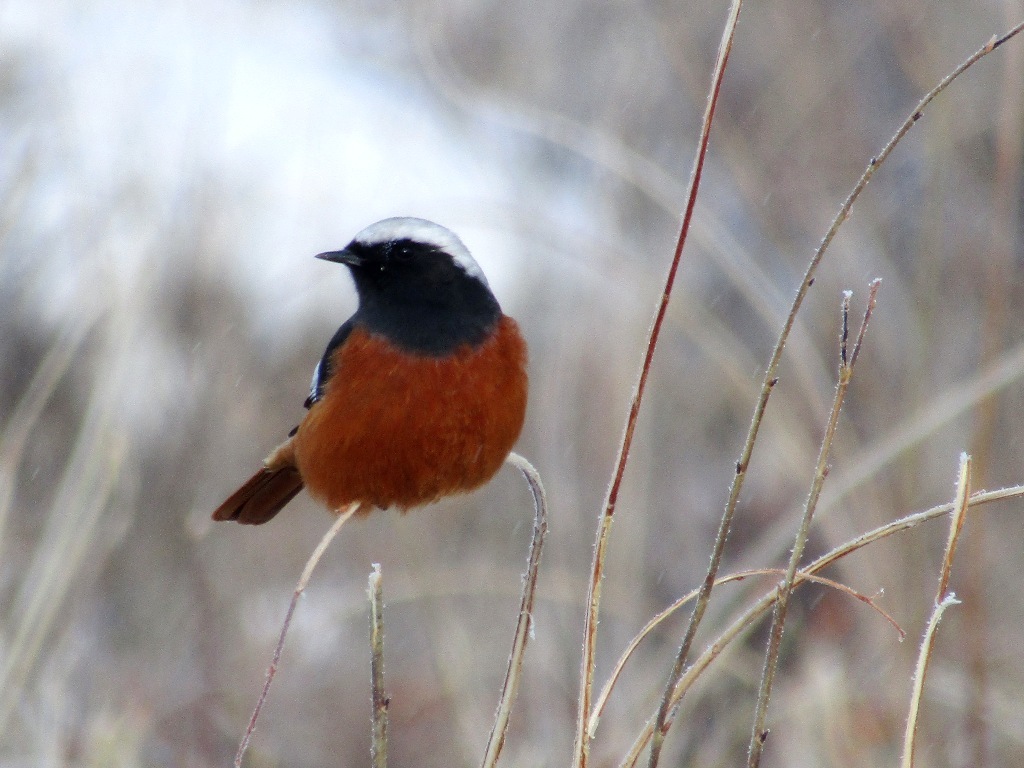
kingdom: Animalia
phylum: Chordata
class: Aves
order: Passeriformes
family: Muscicapidae
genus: Phoenicurus
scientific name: Phoenicurus erythrogastrus
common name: Güldenstädt's redstart
